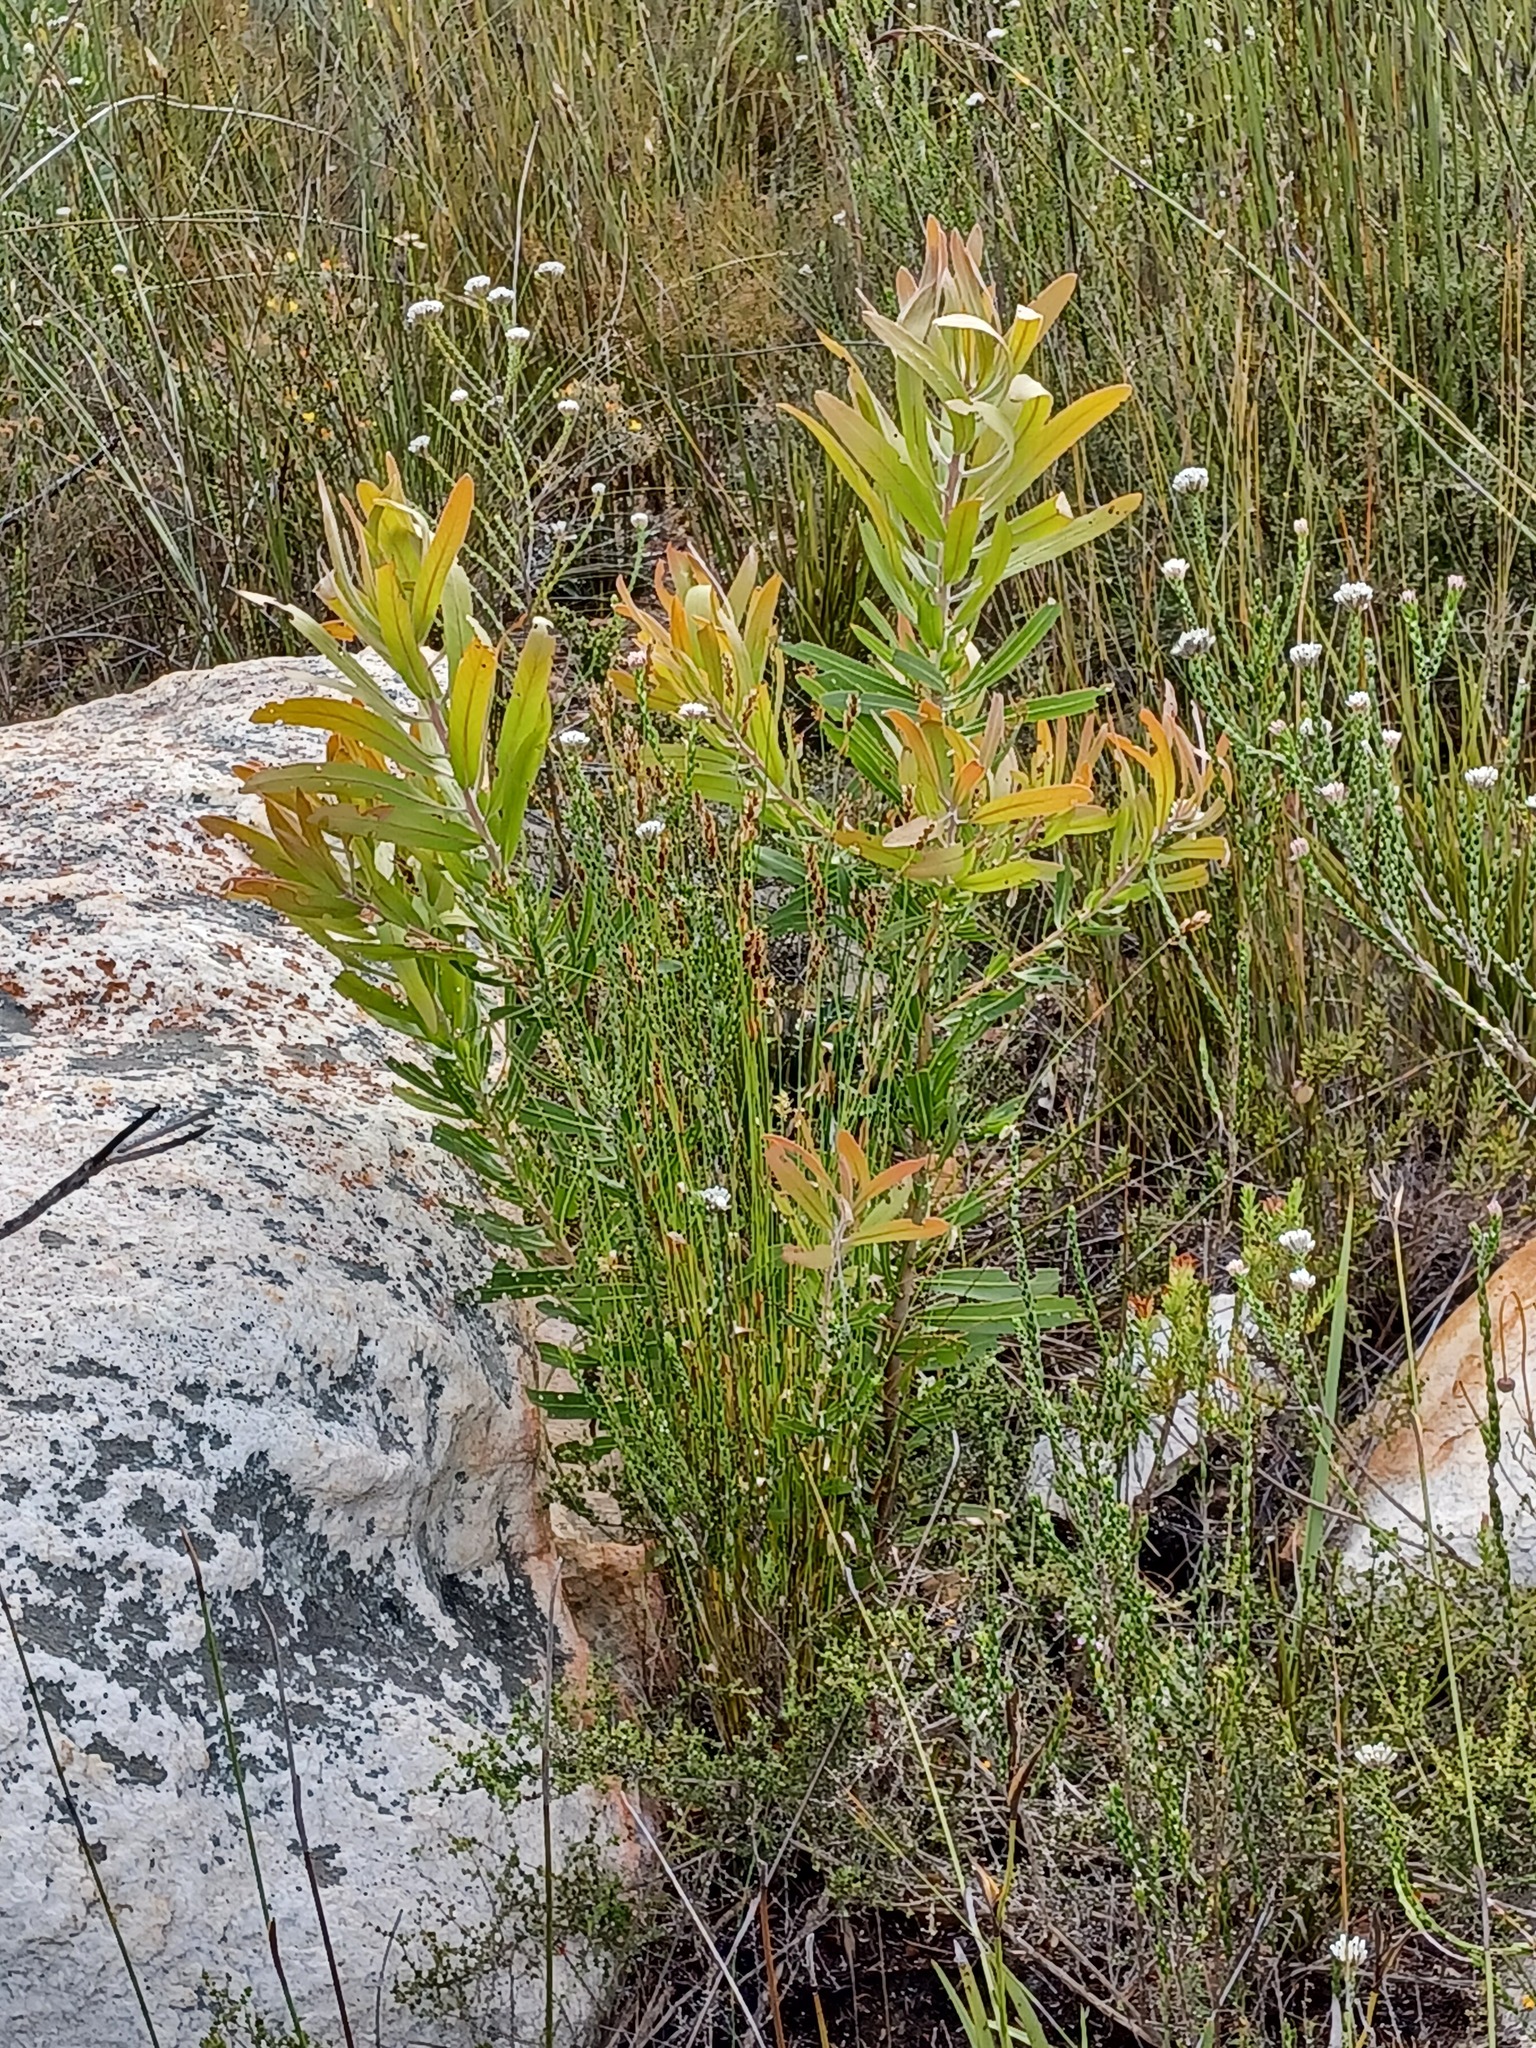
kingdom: Plantae
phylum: Tracheophyta
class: Magnoliopsida
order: Proteales
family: Proteaceae
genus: Protea
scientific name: Protea neriifolia
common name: Blue sugarbush
